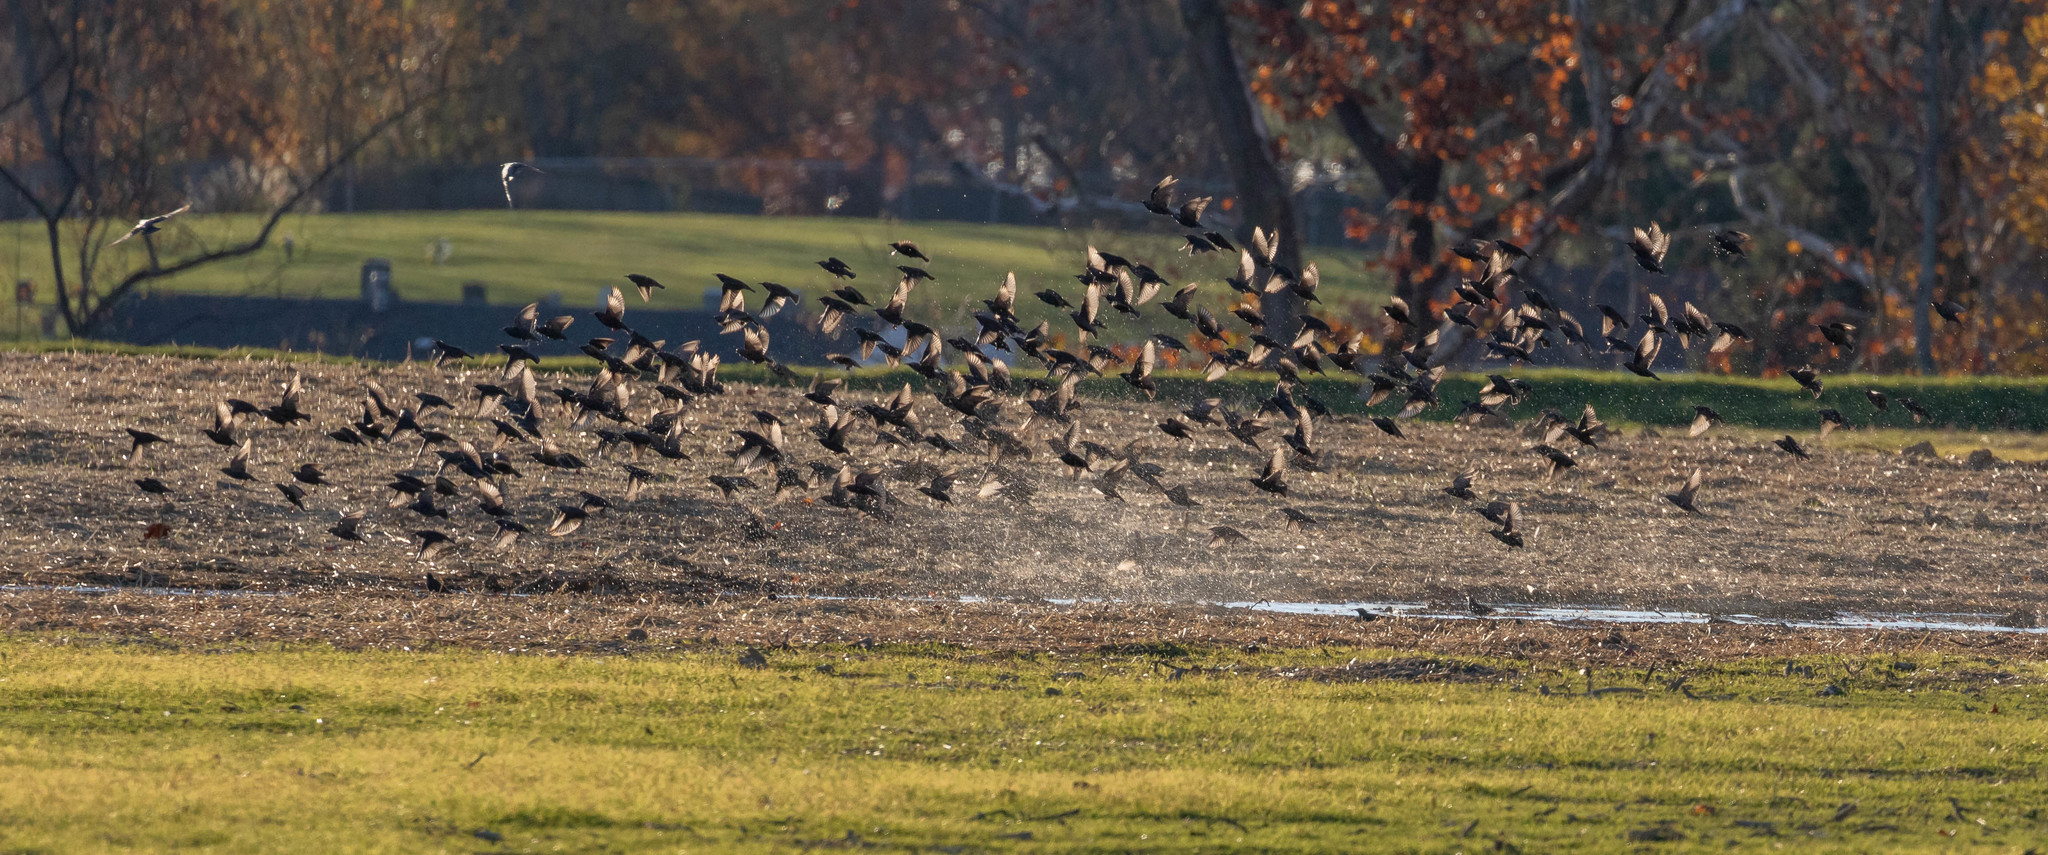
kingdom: Animalia
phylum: Chordata
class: Aves
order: Passeriformes
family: Sturnidae
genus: Sturnus
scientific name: Sturnus vulgaris
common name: Common starling
